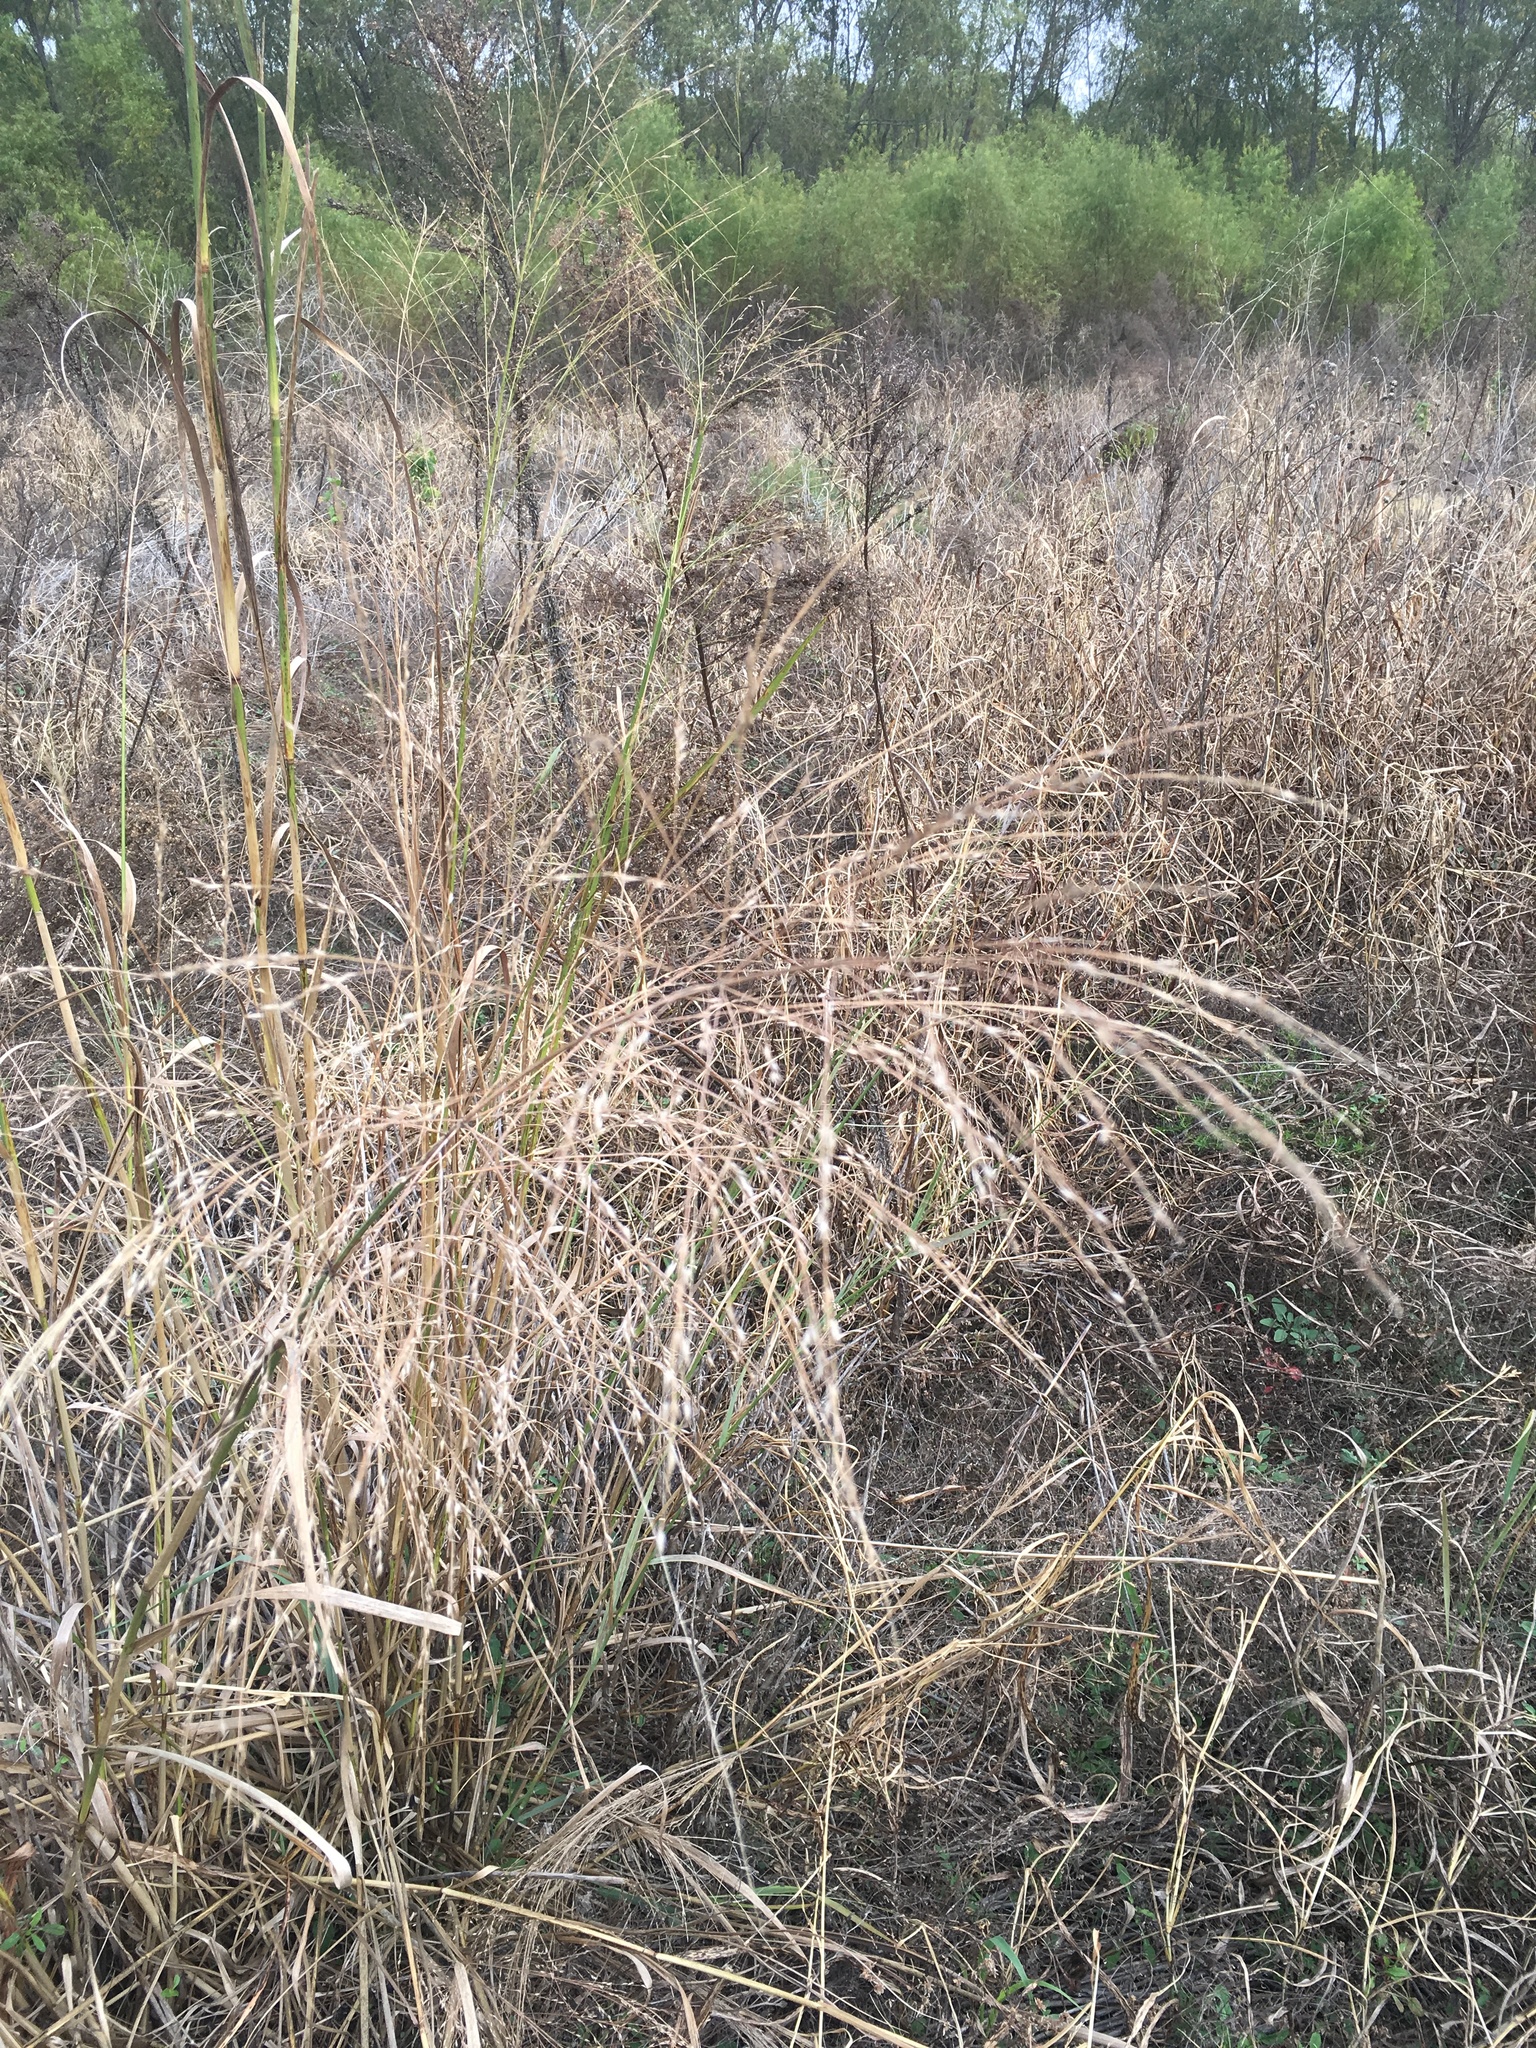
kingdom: Plantae
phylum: Tracheophyta
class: Liliopsida
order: Poales
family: Poaceae
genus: Panicum
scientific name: Panicum virgatum
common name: Switchgrass
